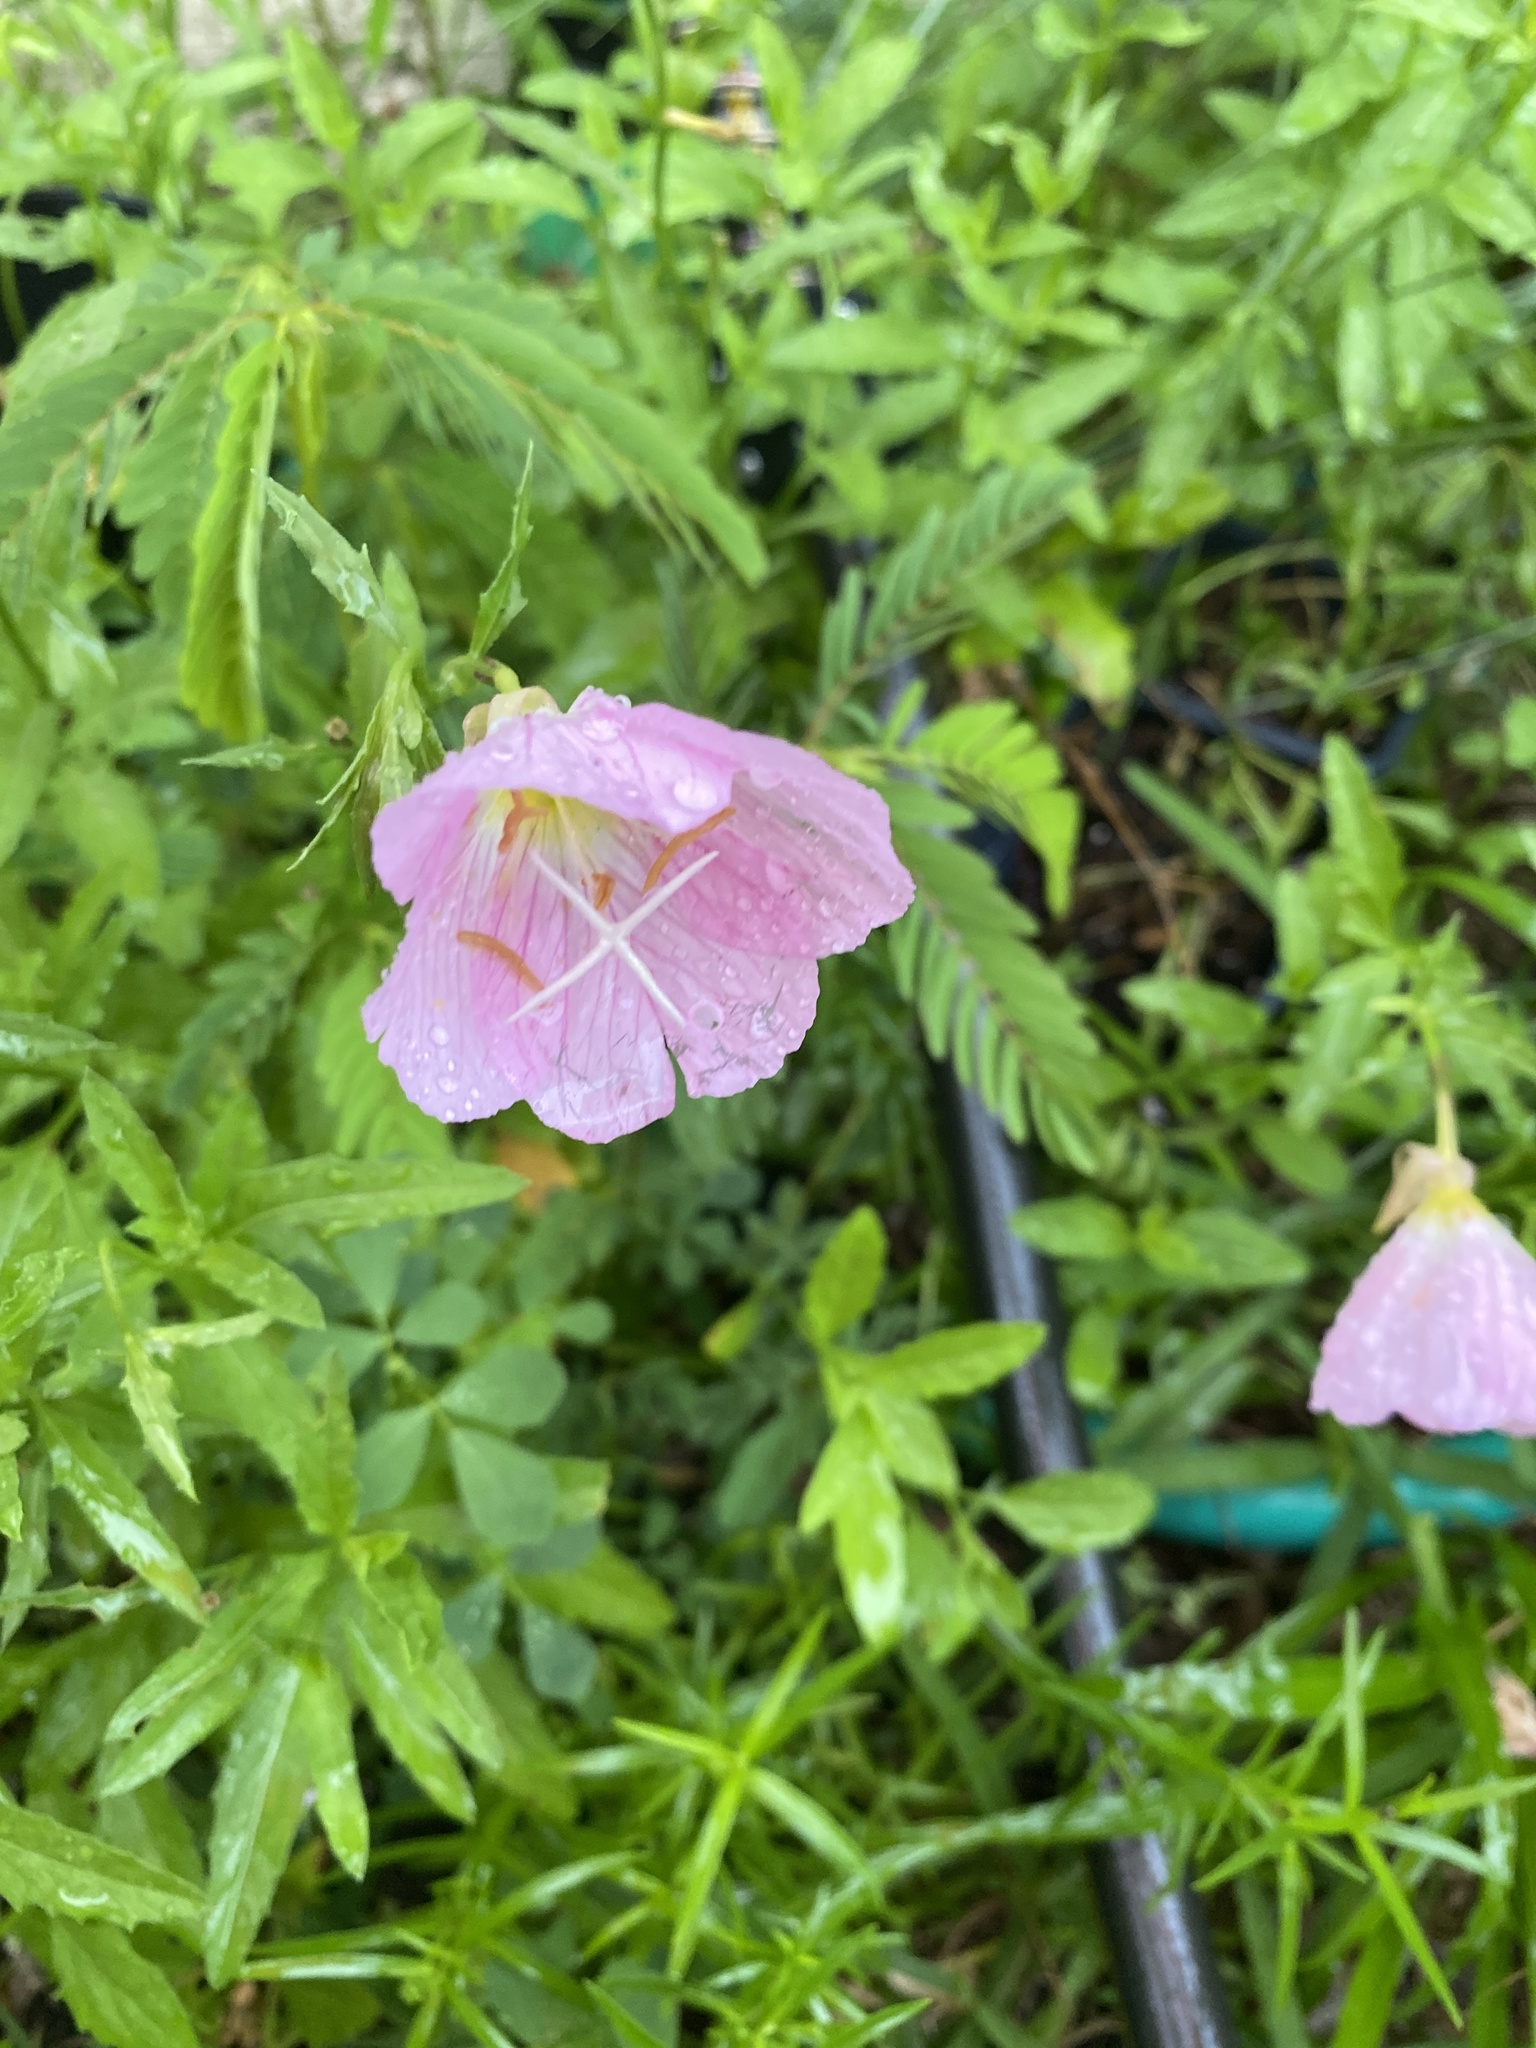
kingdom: Plantae
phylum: Tracheophyta
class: Magnoliopsida
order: Myrtales
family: Onagraceae
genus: Oenothera
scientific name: Oenothera speciosa
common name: White evening-primrose
